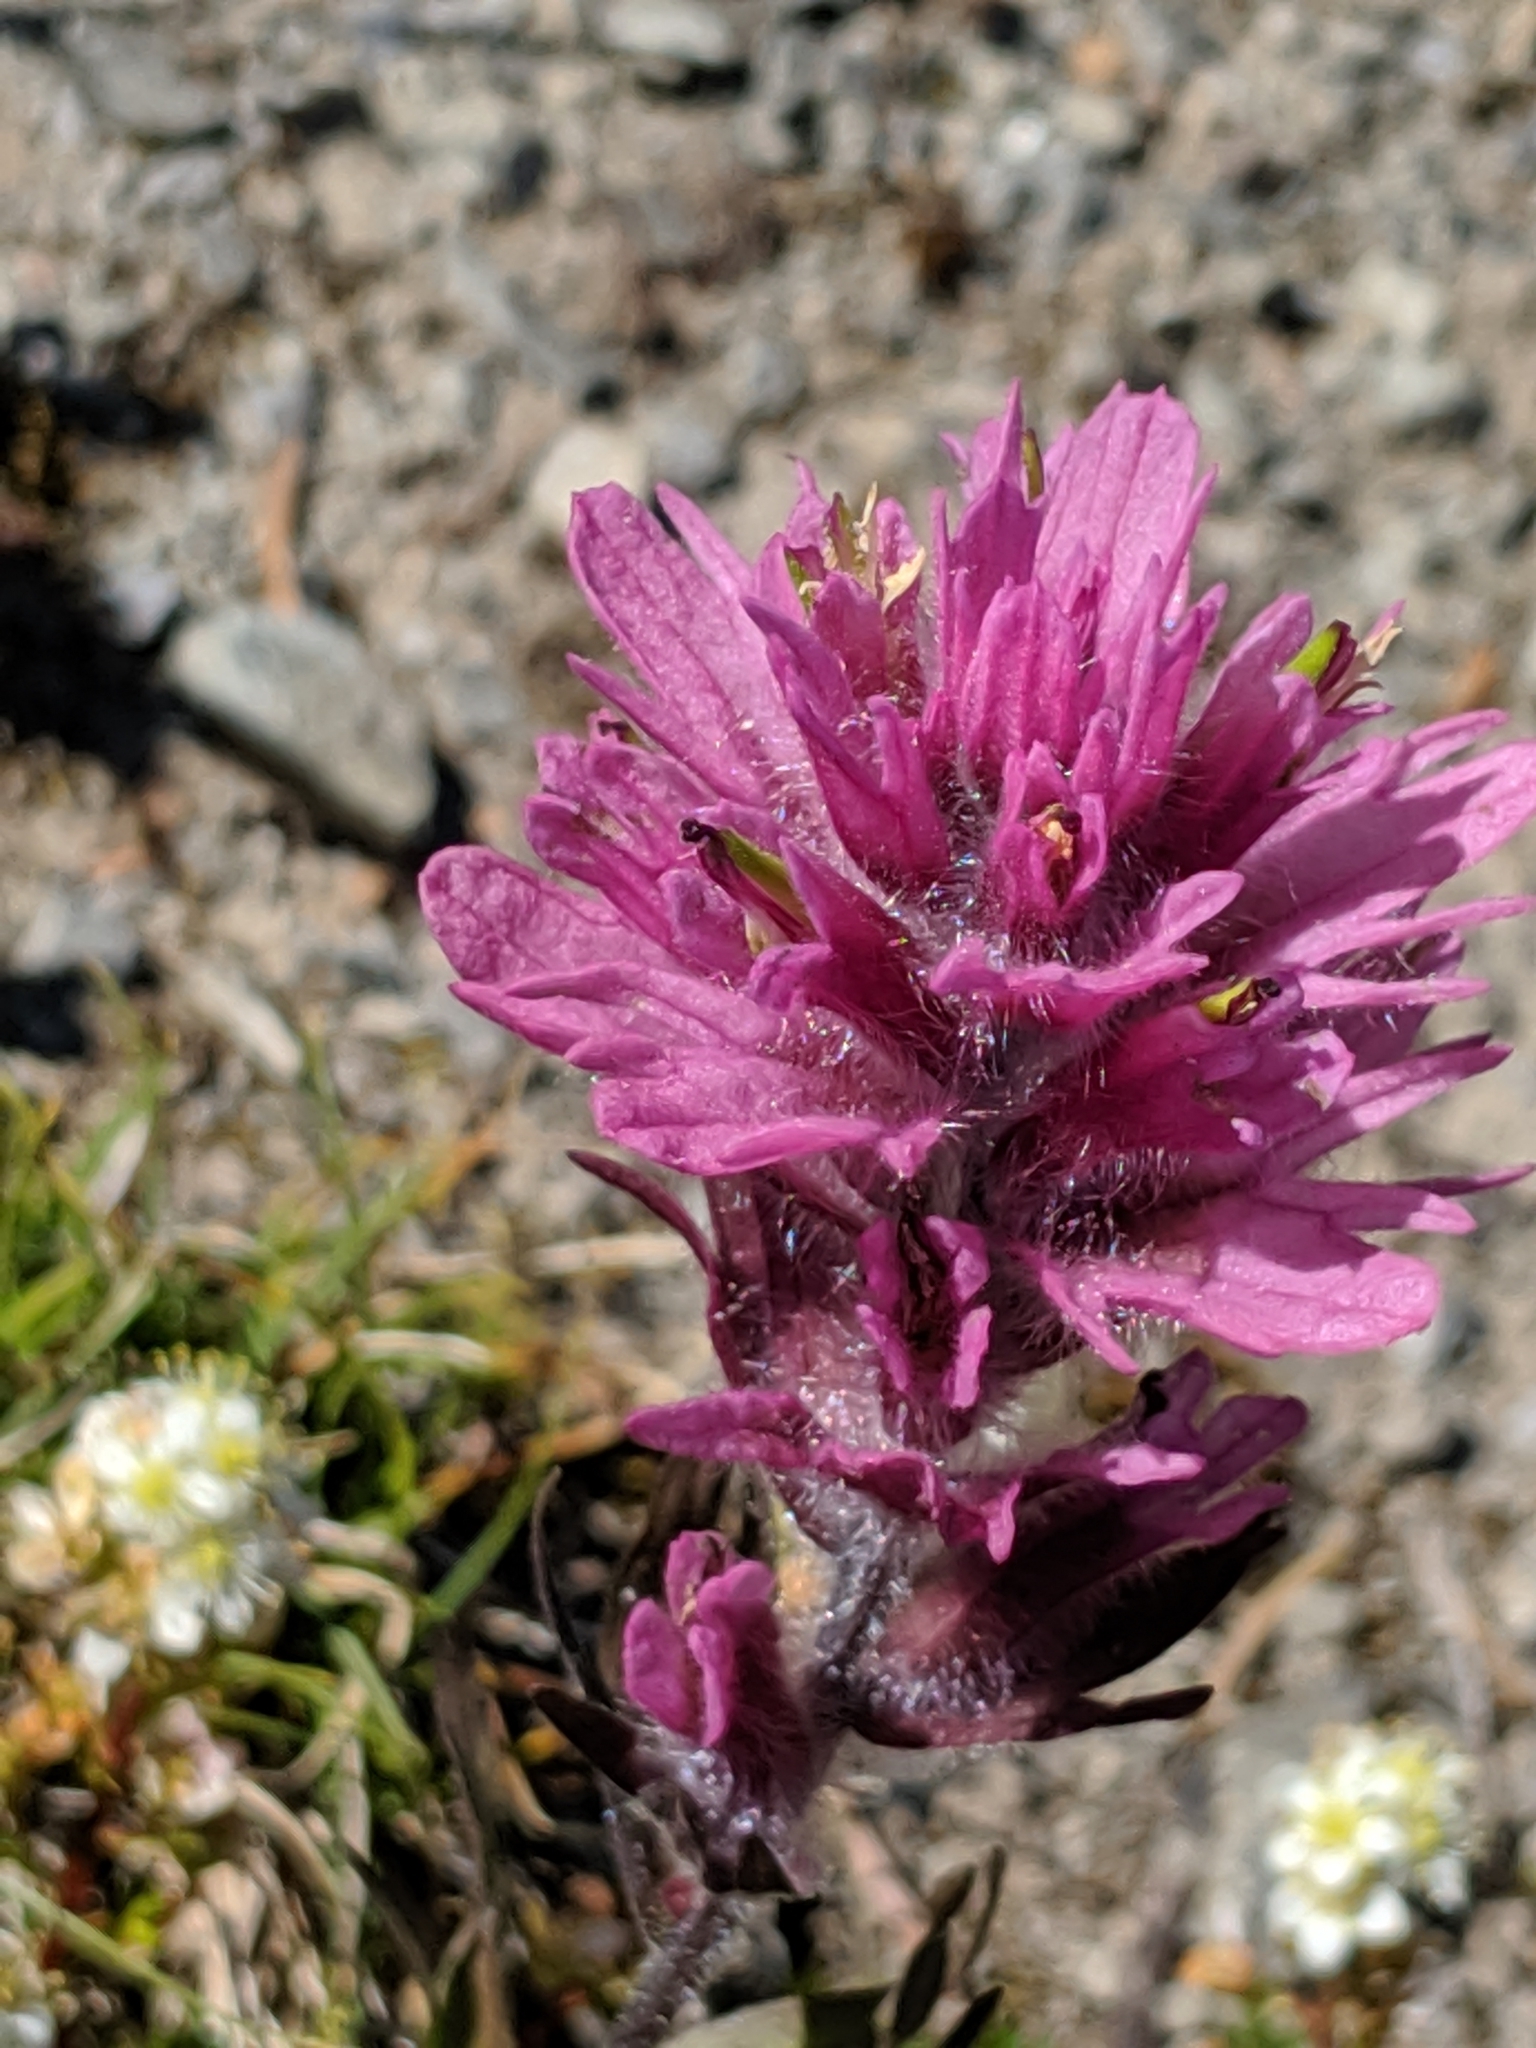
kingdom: Plantae
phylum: Tracheophyta
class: Magnoliopsida
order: Lamiales
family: Orobanchaceae
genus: Castilleja
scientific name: Castilleja parviflora
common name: Mountain paintbrush
